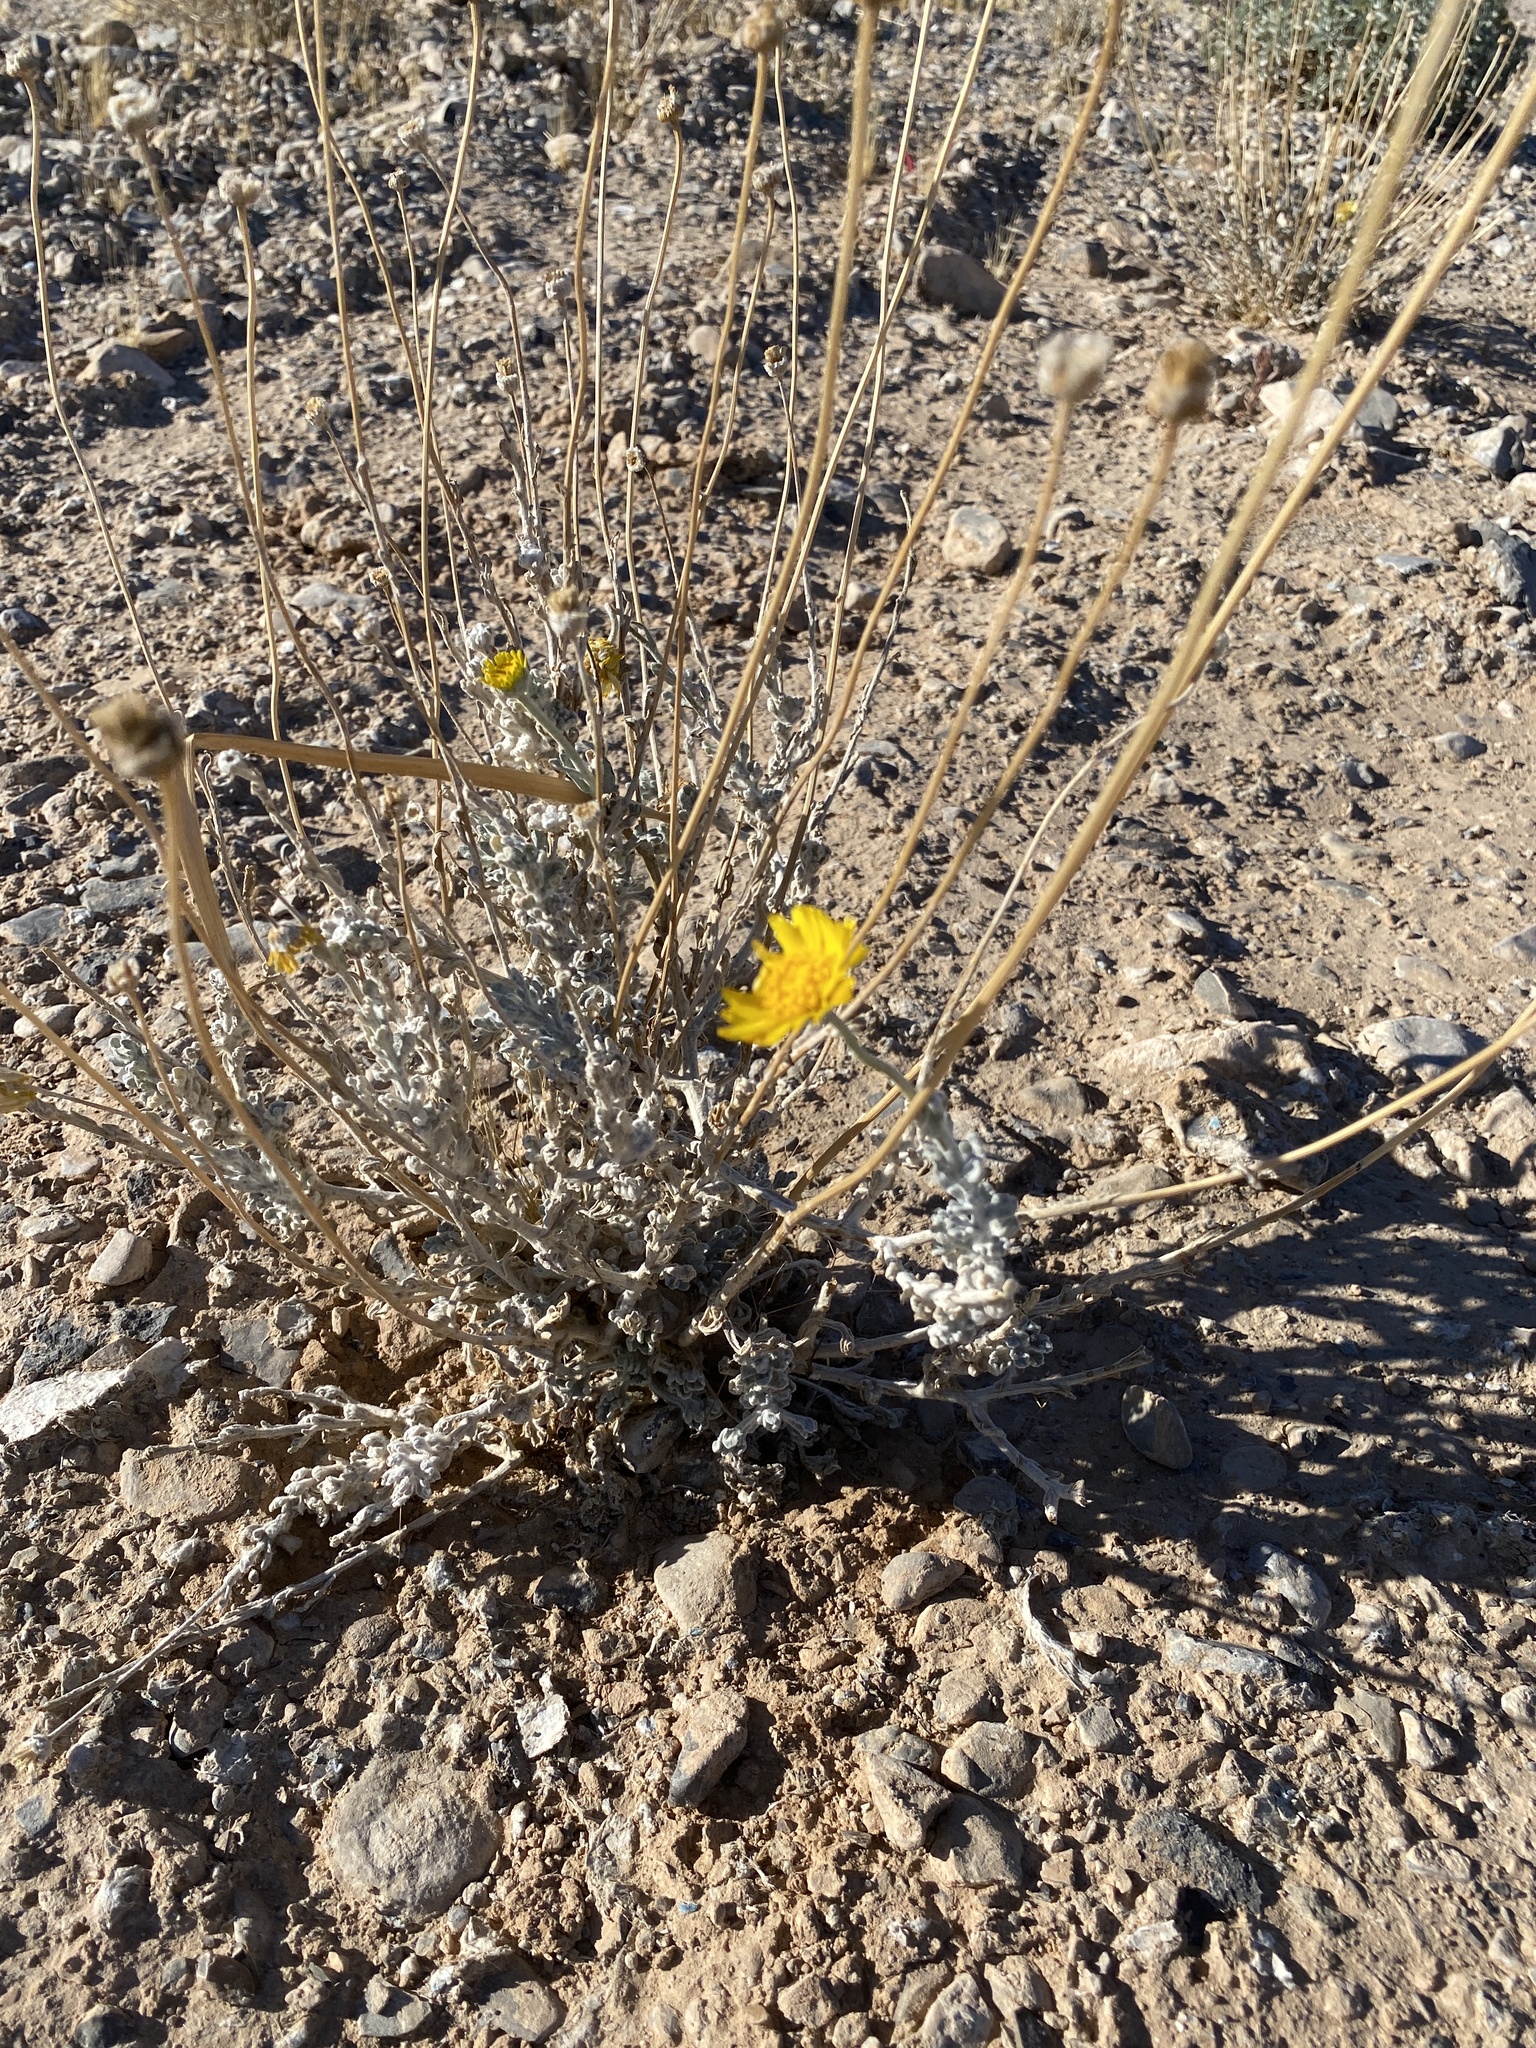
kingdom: Plantae
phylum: Tracheophyta
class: Magnoliopsida
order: Asterales
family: Asteraceae
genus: Baileya
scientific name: Baileya multiradiata
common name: Desert-marigold
